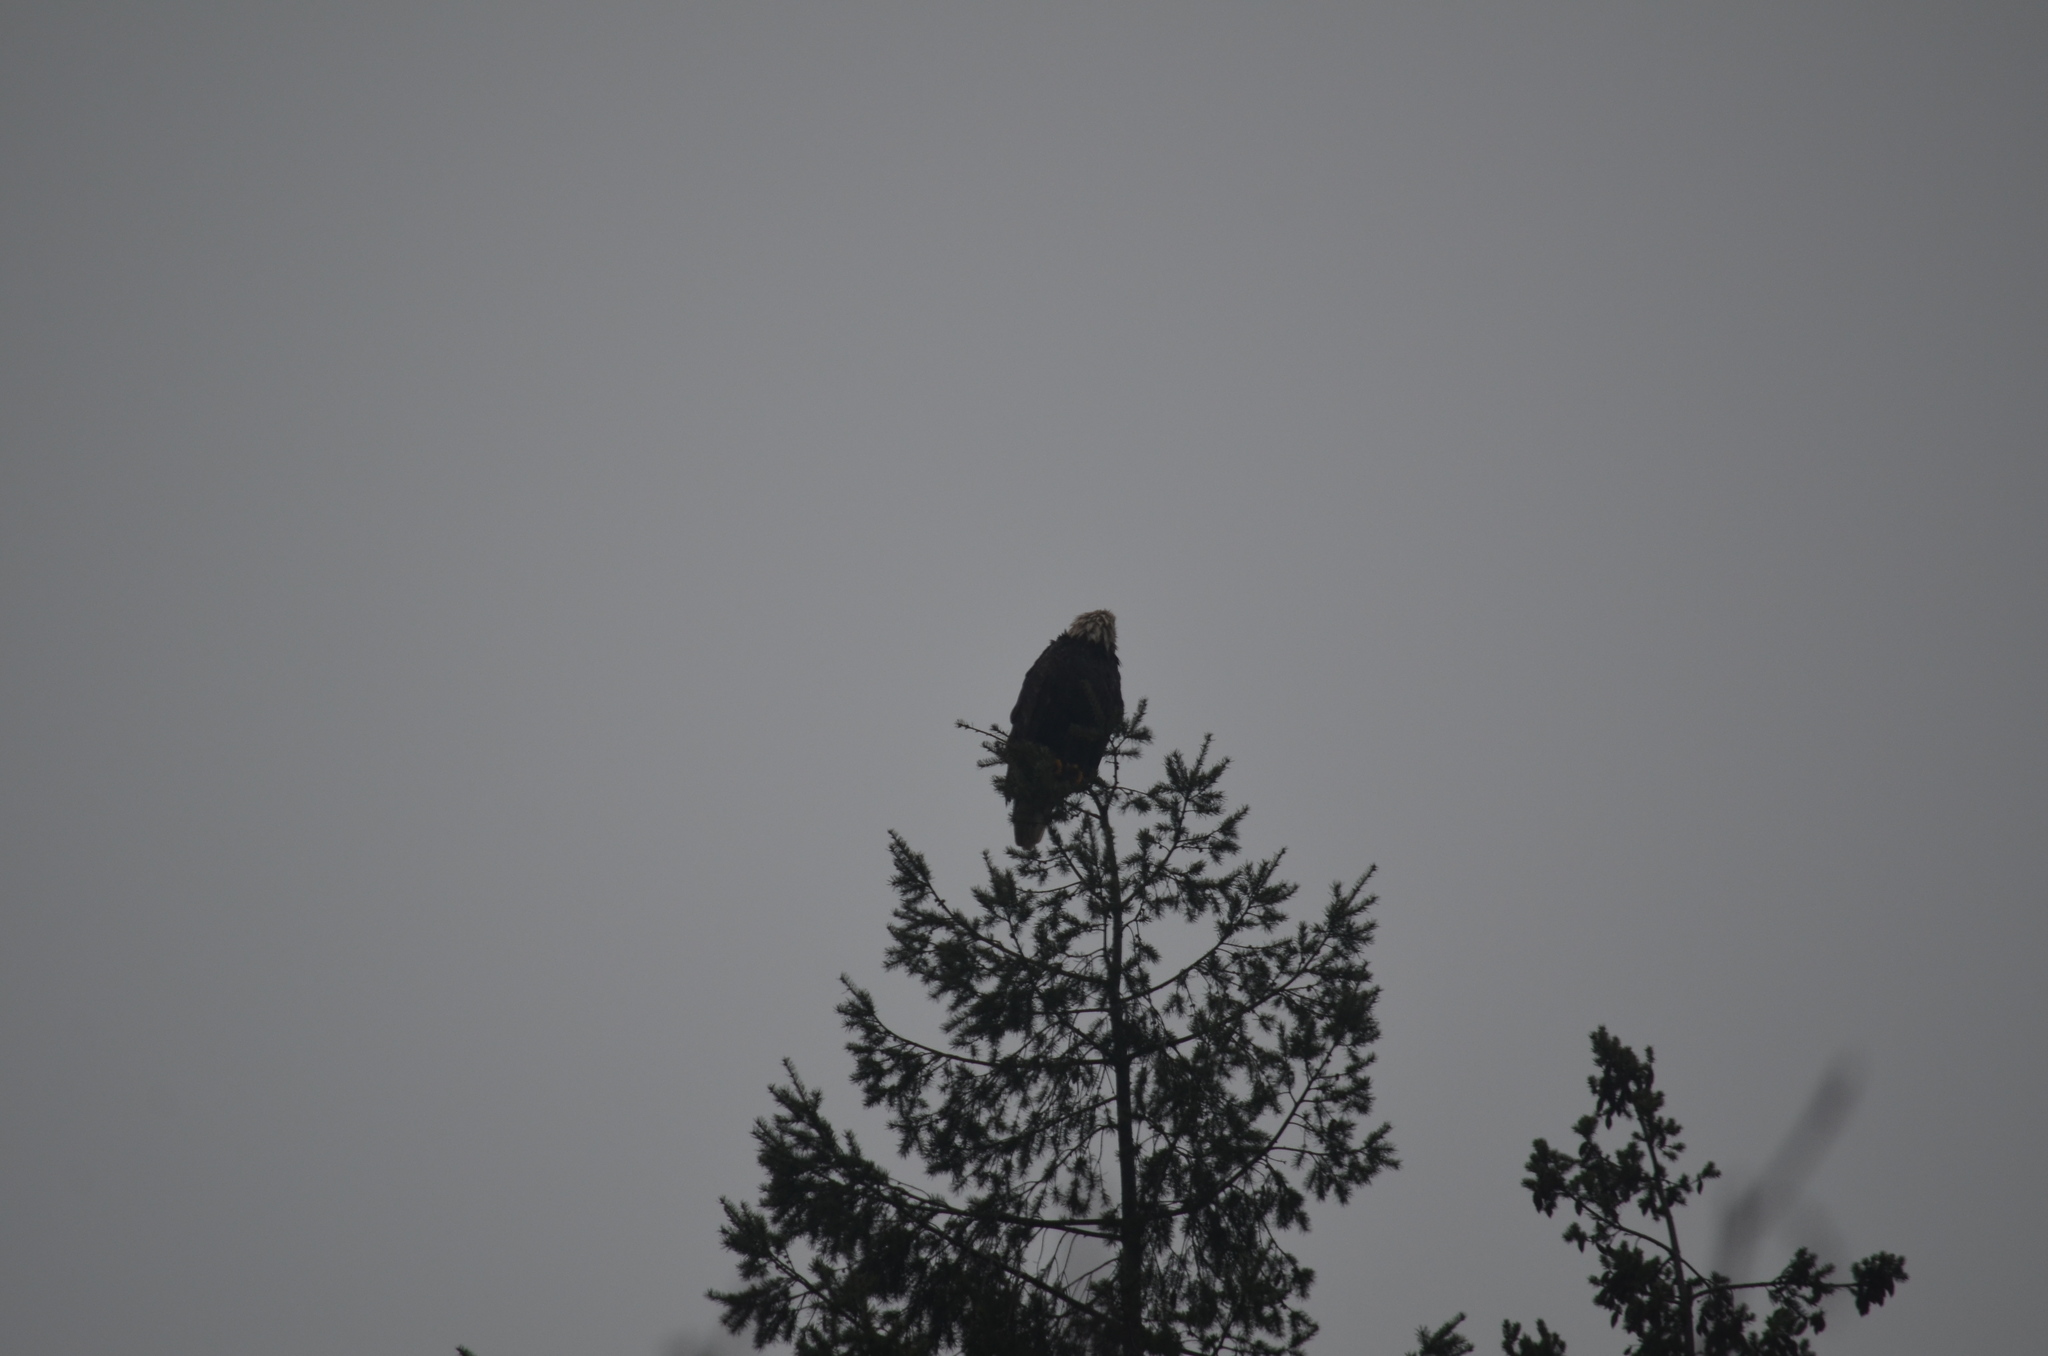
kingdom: Animalia
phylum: Chordata
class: Aves
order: Accipitriformes
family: Accipitridae
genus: Haliaeetus
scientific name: Haliaeetus leucocephalus
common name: Bald eagle
